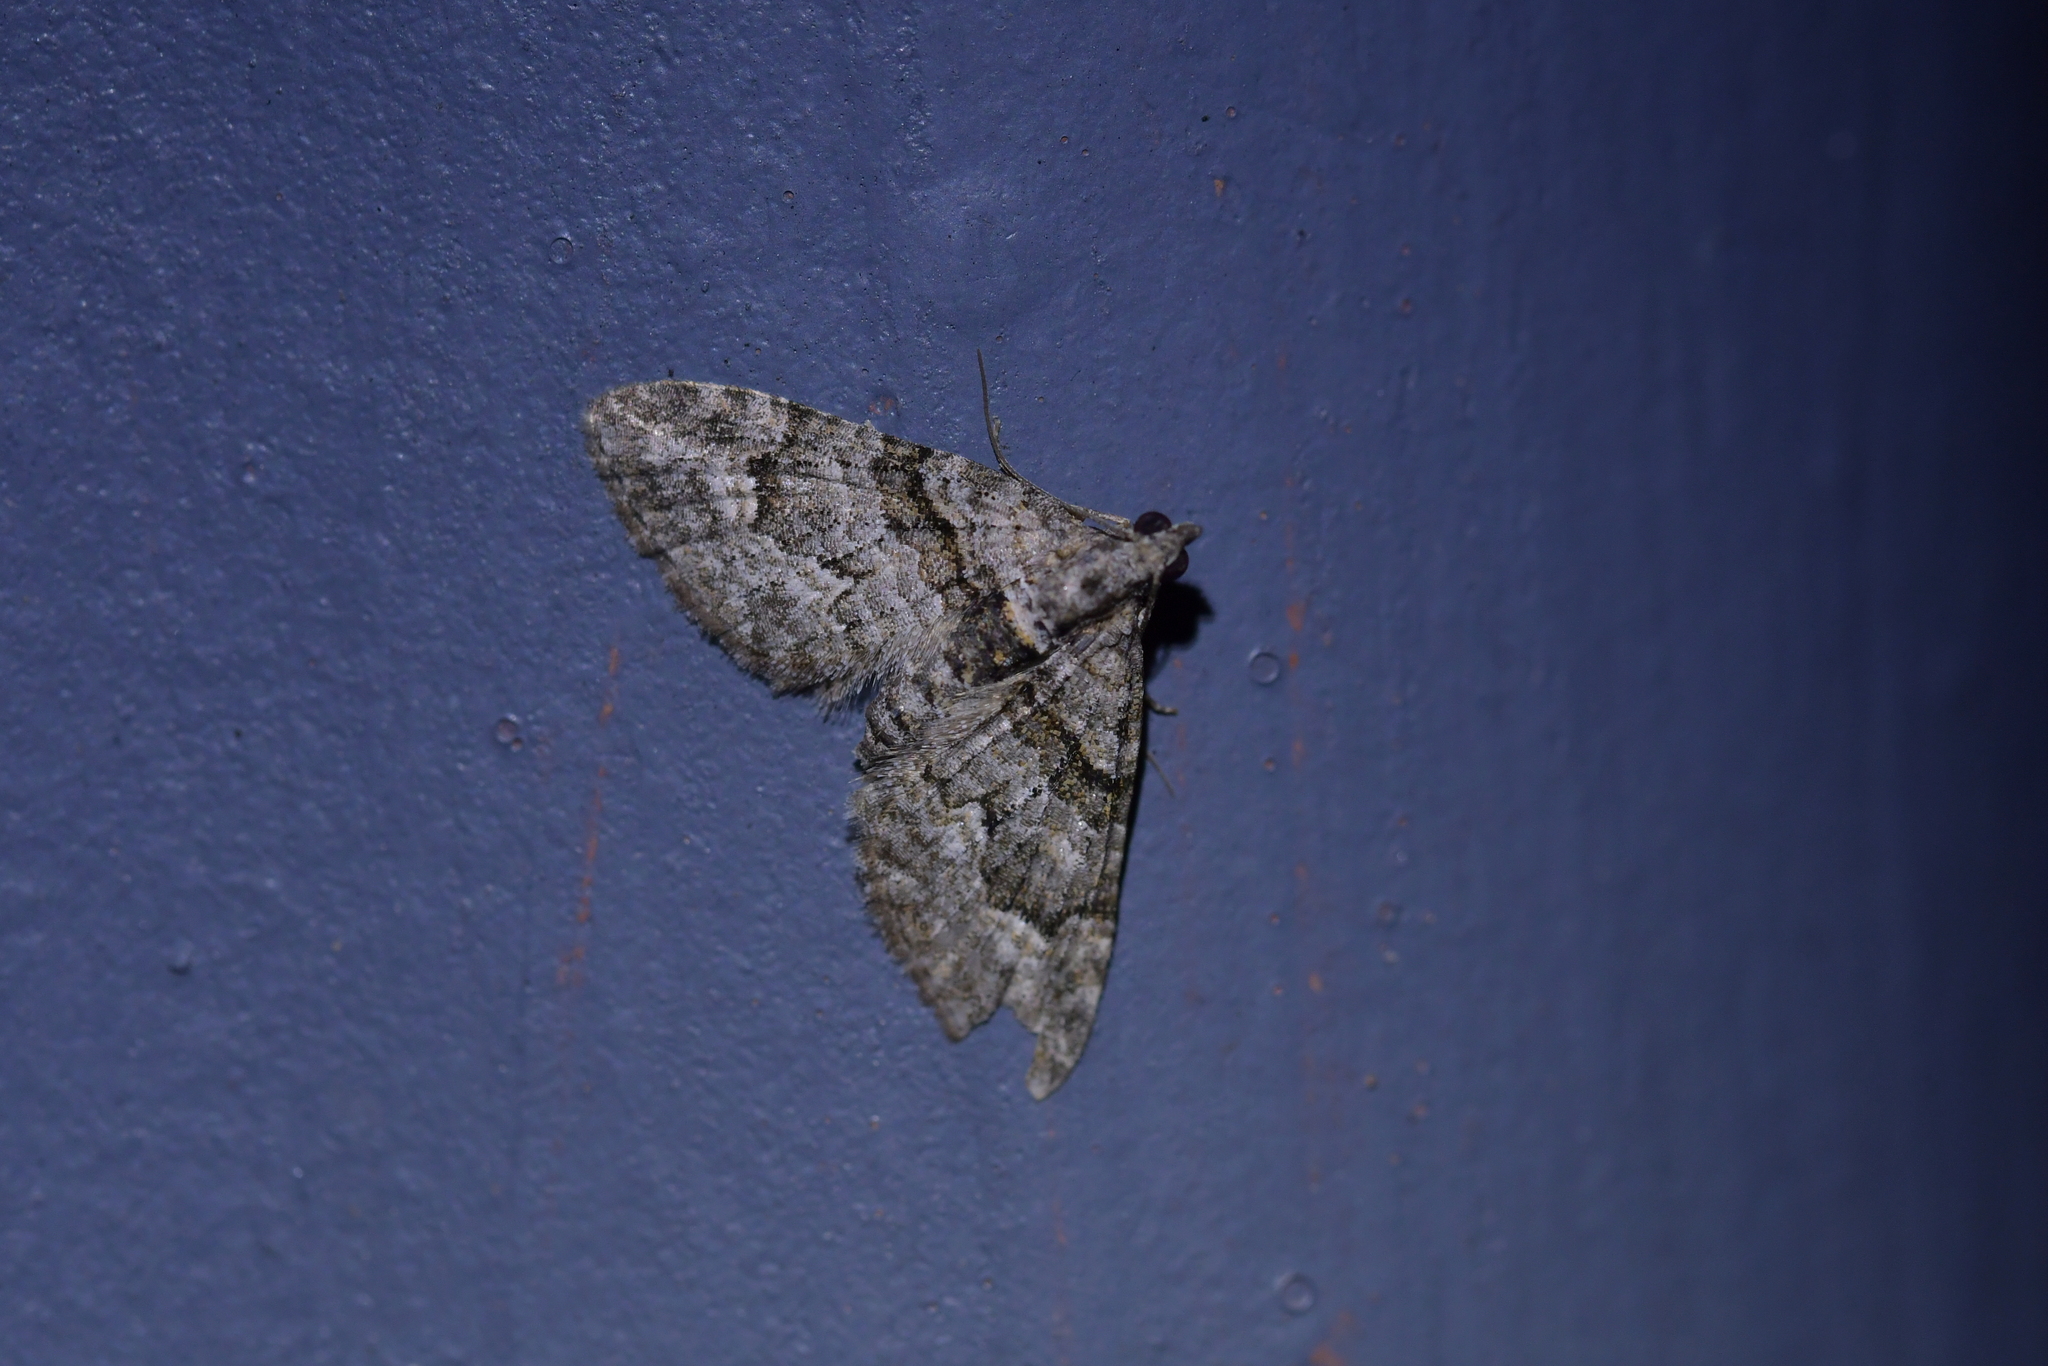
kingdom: Animalia
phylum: Arthropoda
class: Insecta
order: Lepidoptera
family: Geometridae
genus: Phrissogonus
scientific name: Phrissogonus laticostata
